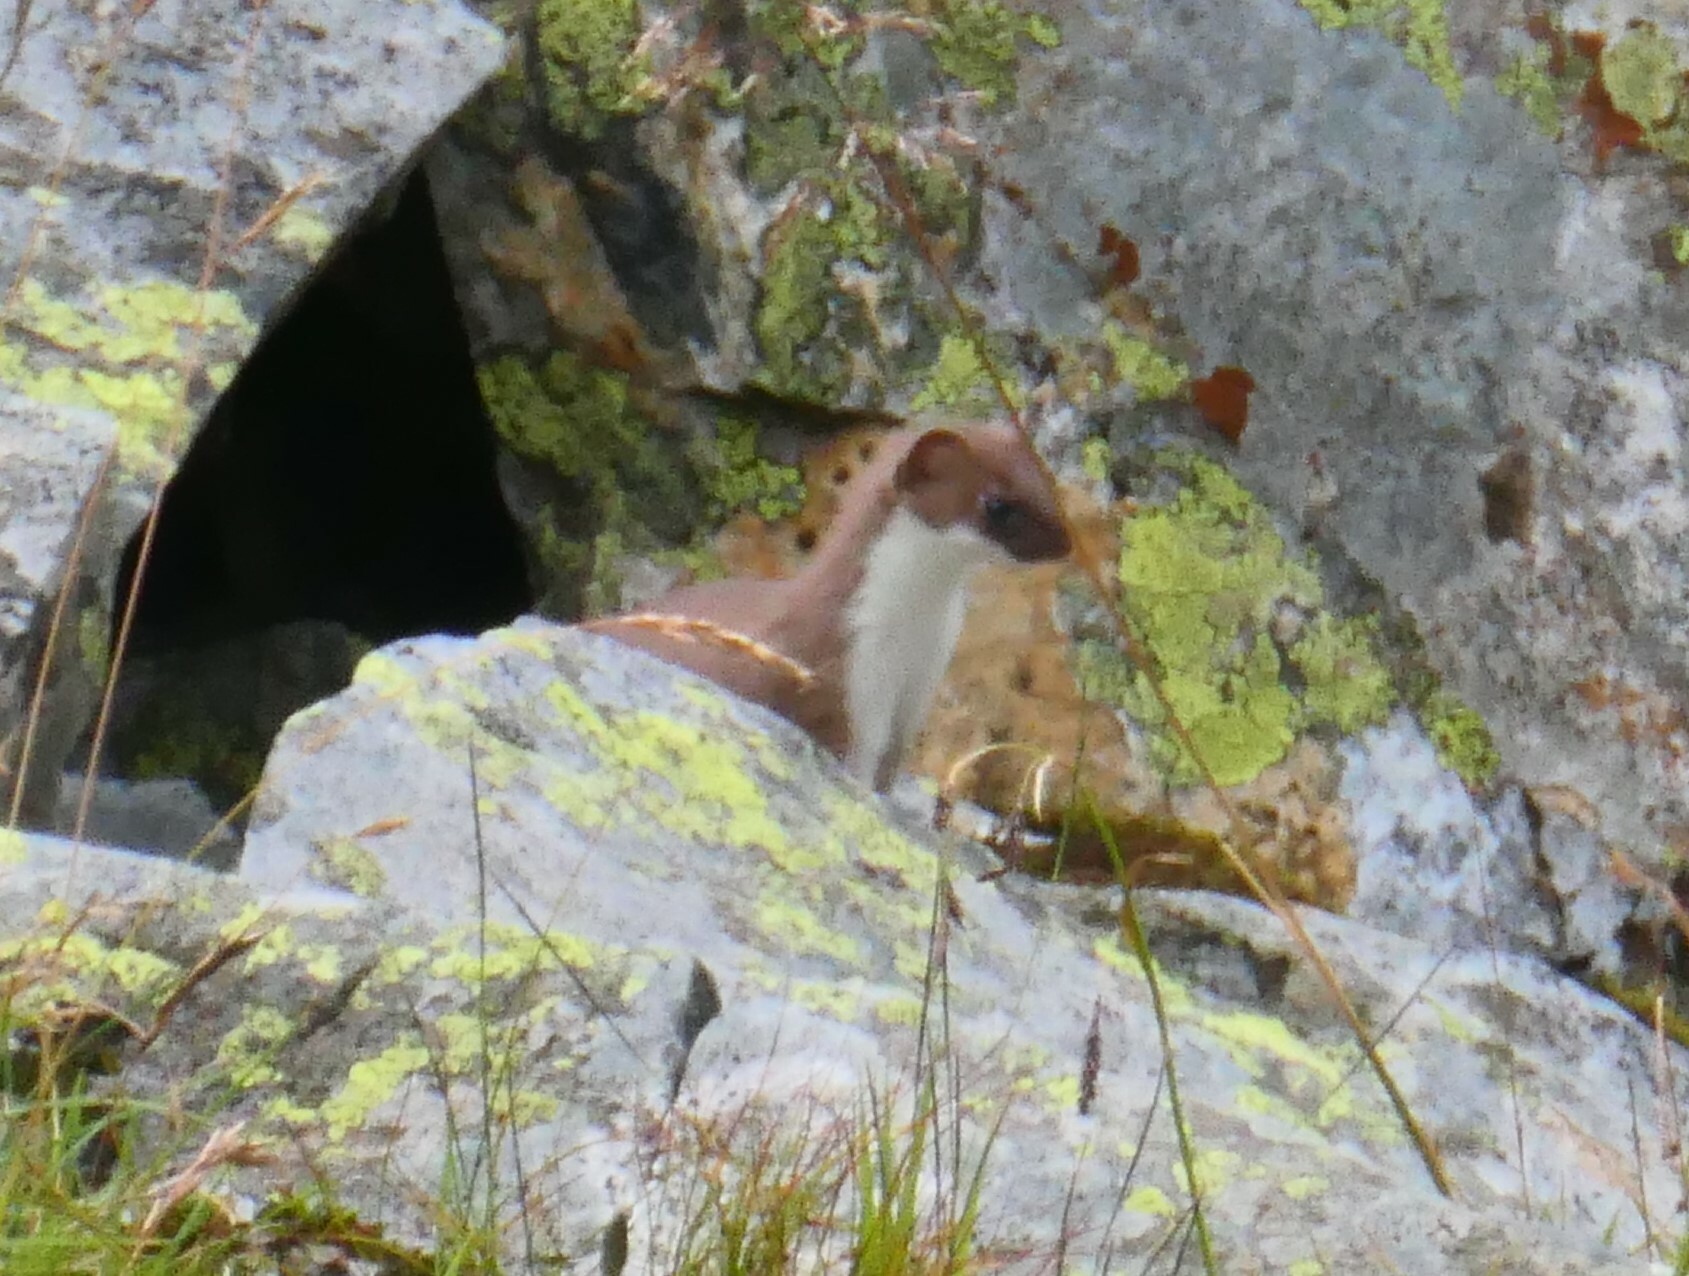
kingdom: Animalia
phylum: Chordata
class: Mammalia
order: Carnivora
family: Mustelidae
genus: Mustela
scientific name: Mustela erminea
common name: Stoat
